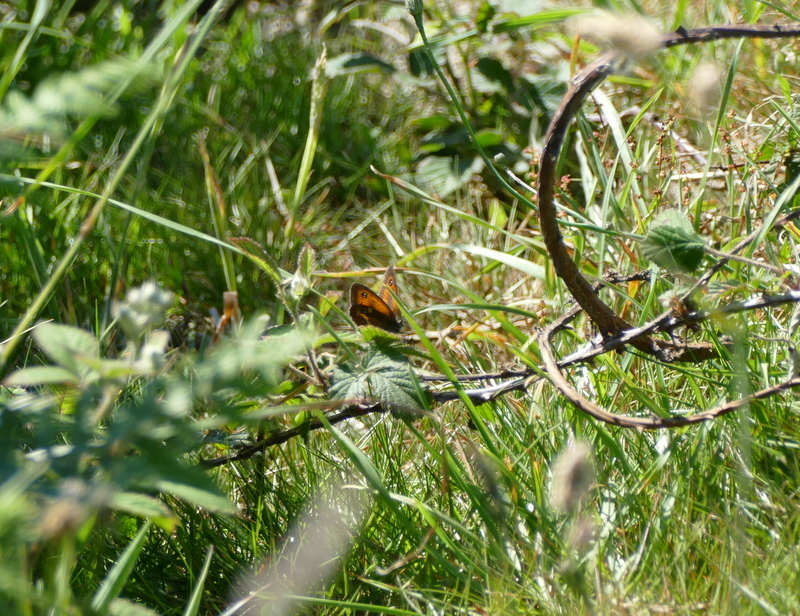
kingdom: Animalia
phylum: Arthropoda
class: Insecta
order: Lepidoptera
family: Nymphalidae
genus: Pyronia
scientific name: Pyronia tithonus
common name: Gatekeeper
